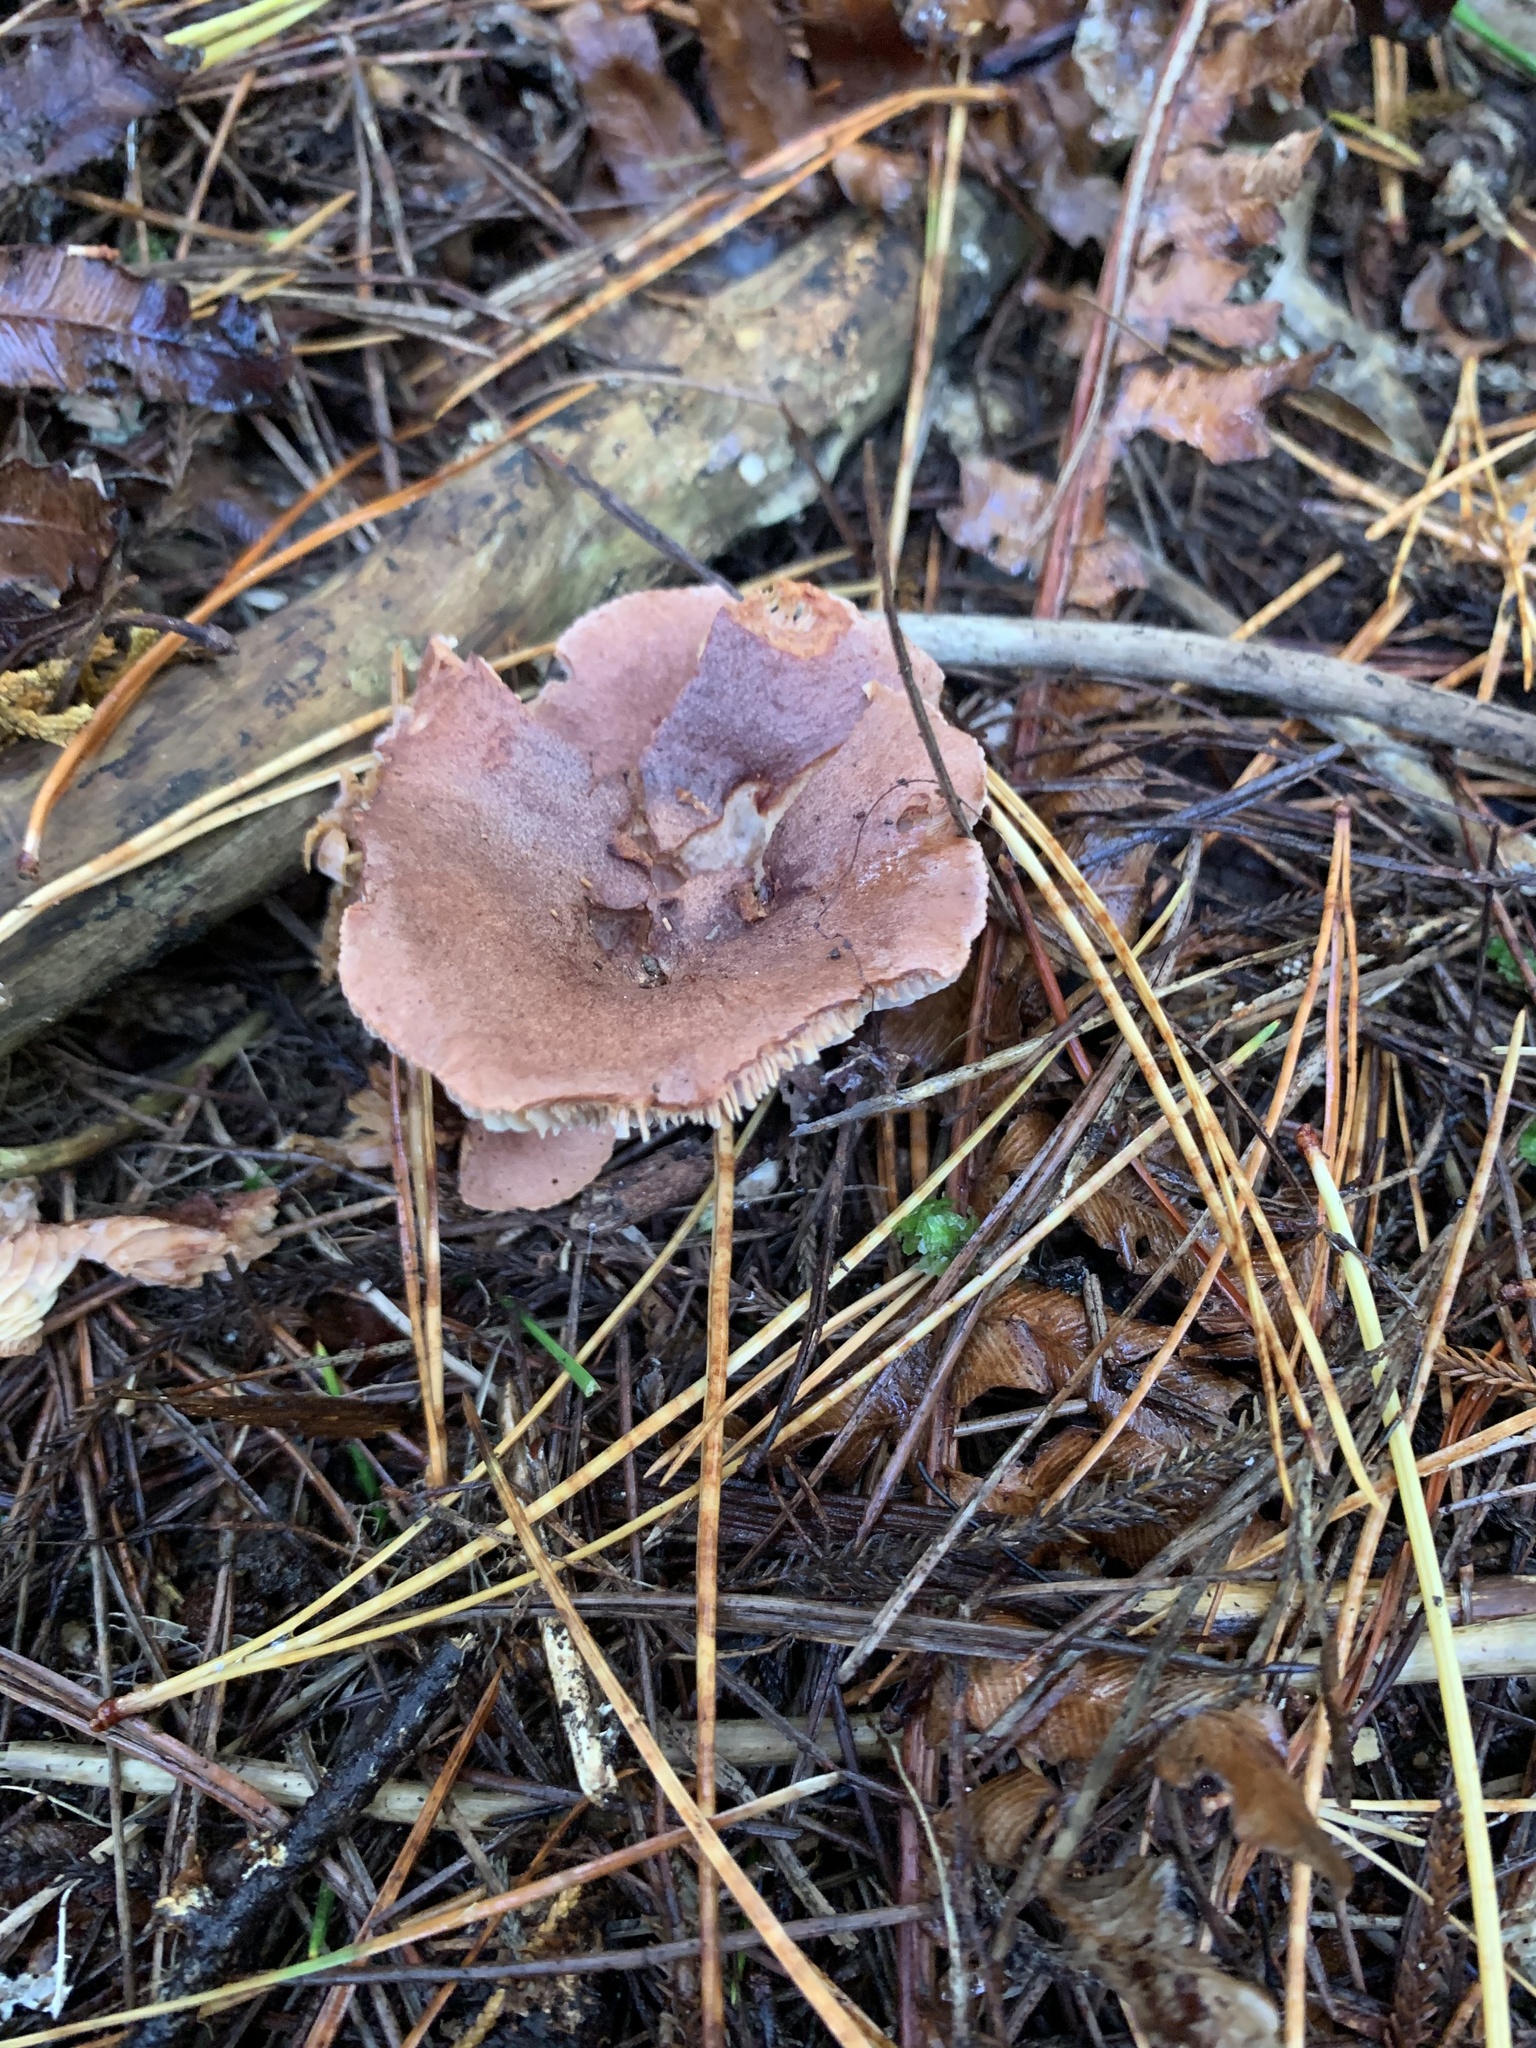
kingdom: Fungi
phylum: Basidiomycota
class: Agaricomycetes
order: Russulales
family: Russulaceae
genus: Lactarius
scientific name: Lactarius rufus
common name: Rufous milk-cap
